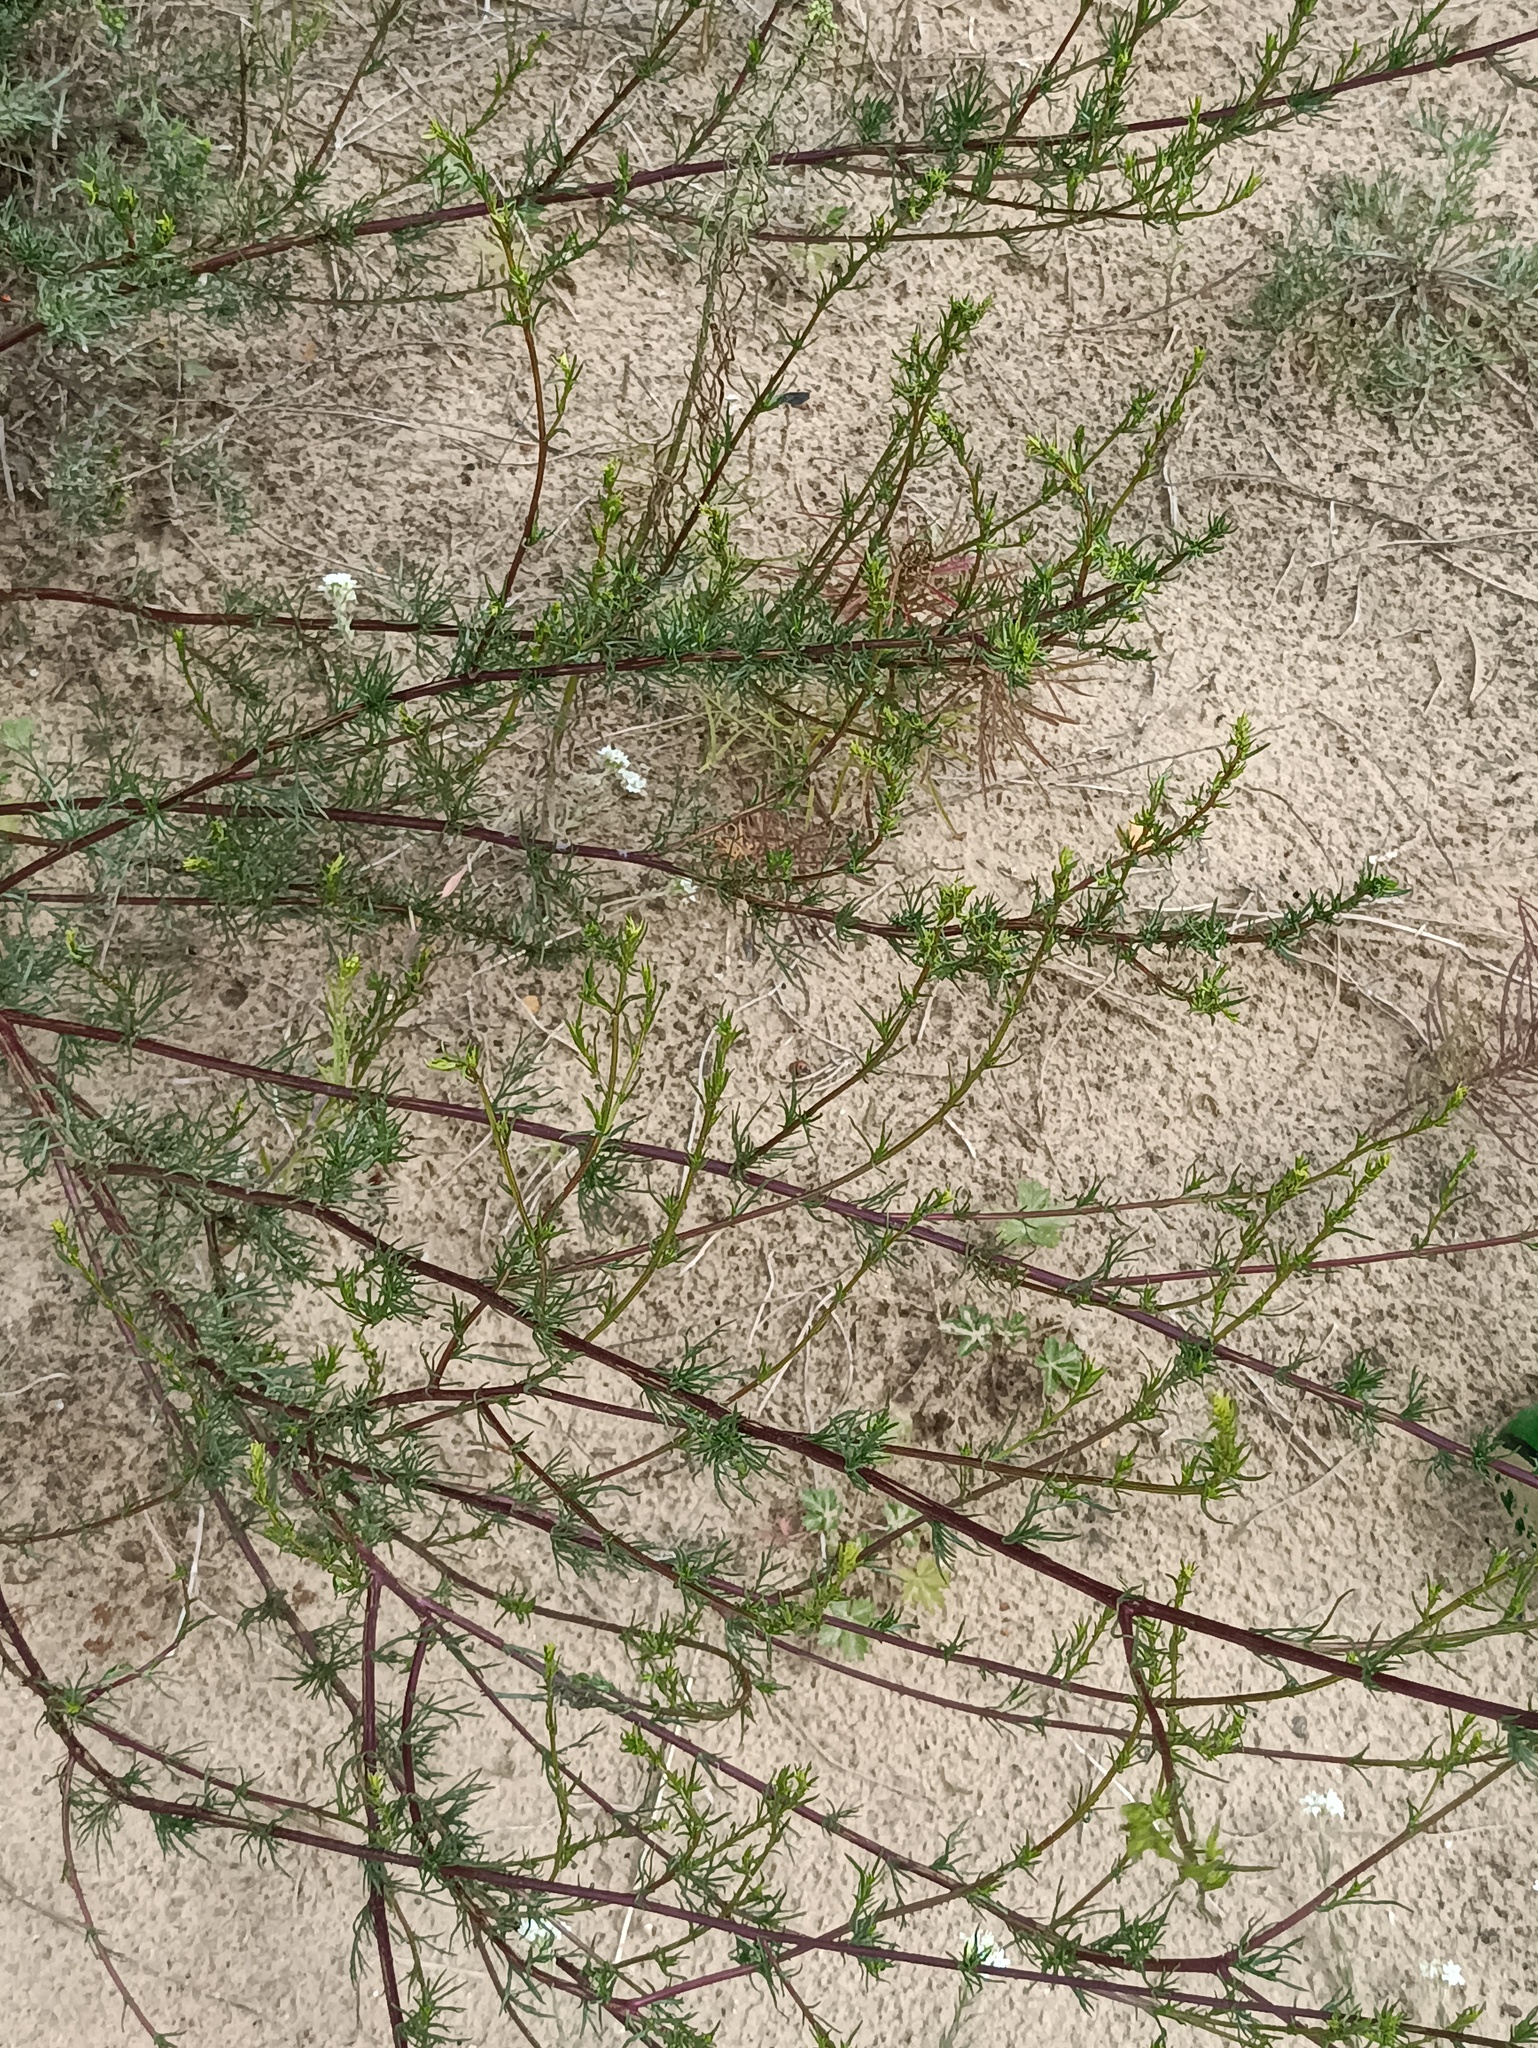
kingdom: Plantae
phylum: Tracheophyta
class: Magnoliopsida
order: Asterales
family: Asteraceae
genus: Artemisia
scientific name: Artemisia campestris
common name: Field wormwood
